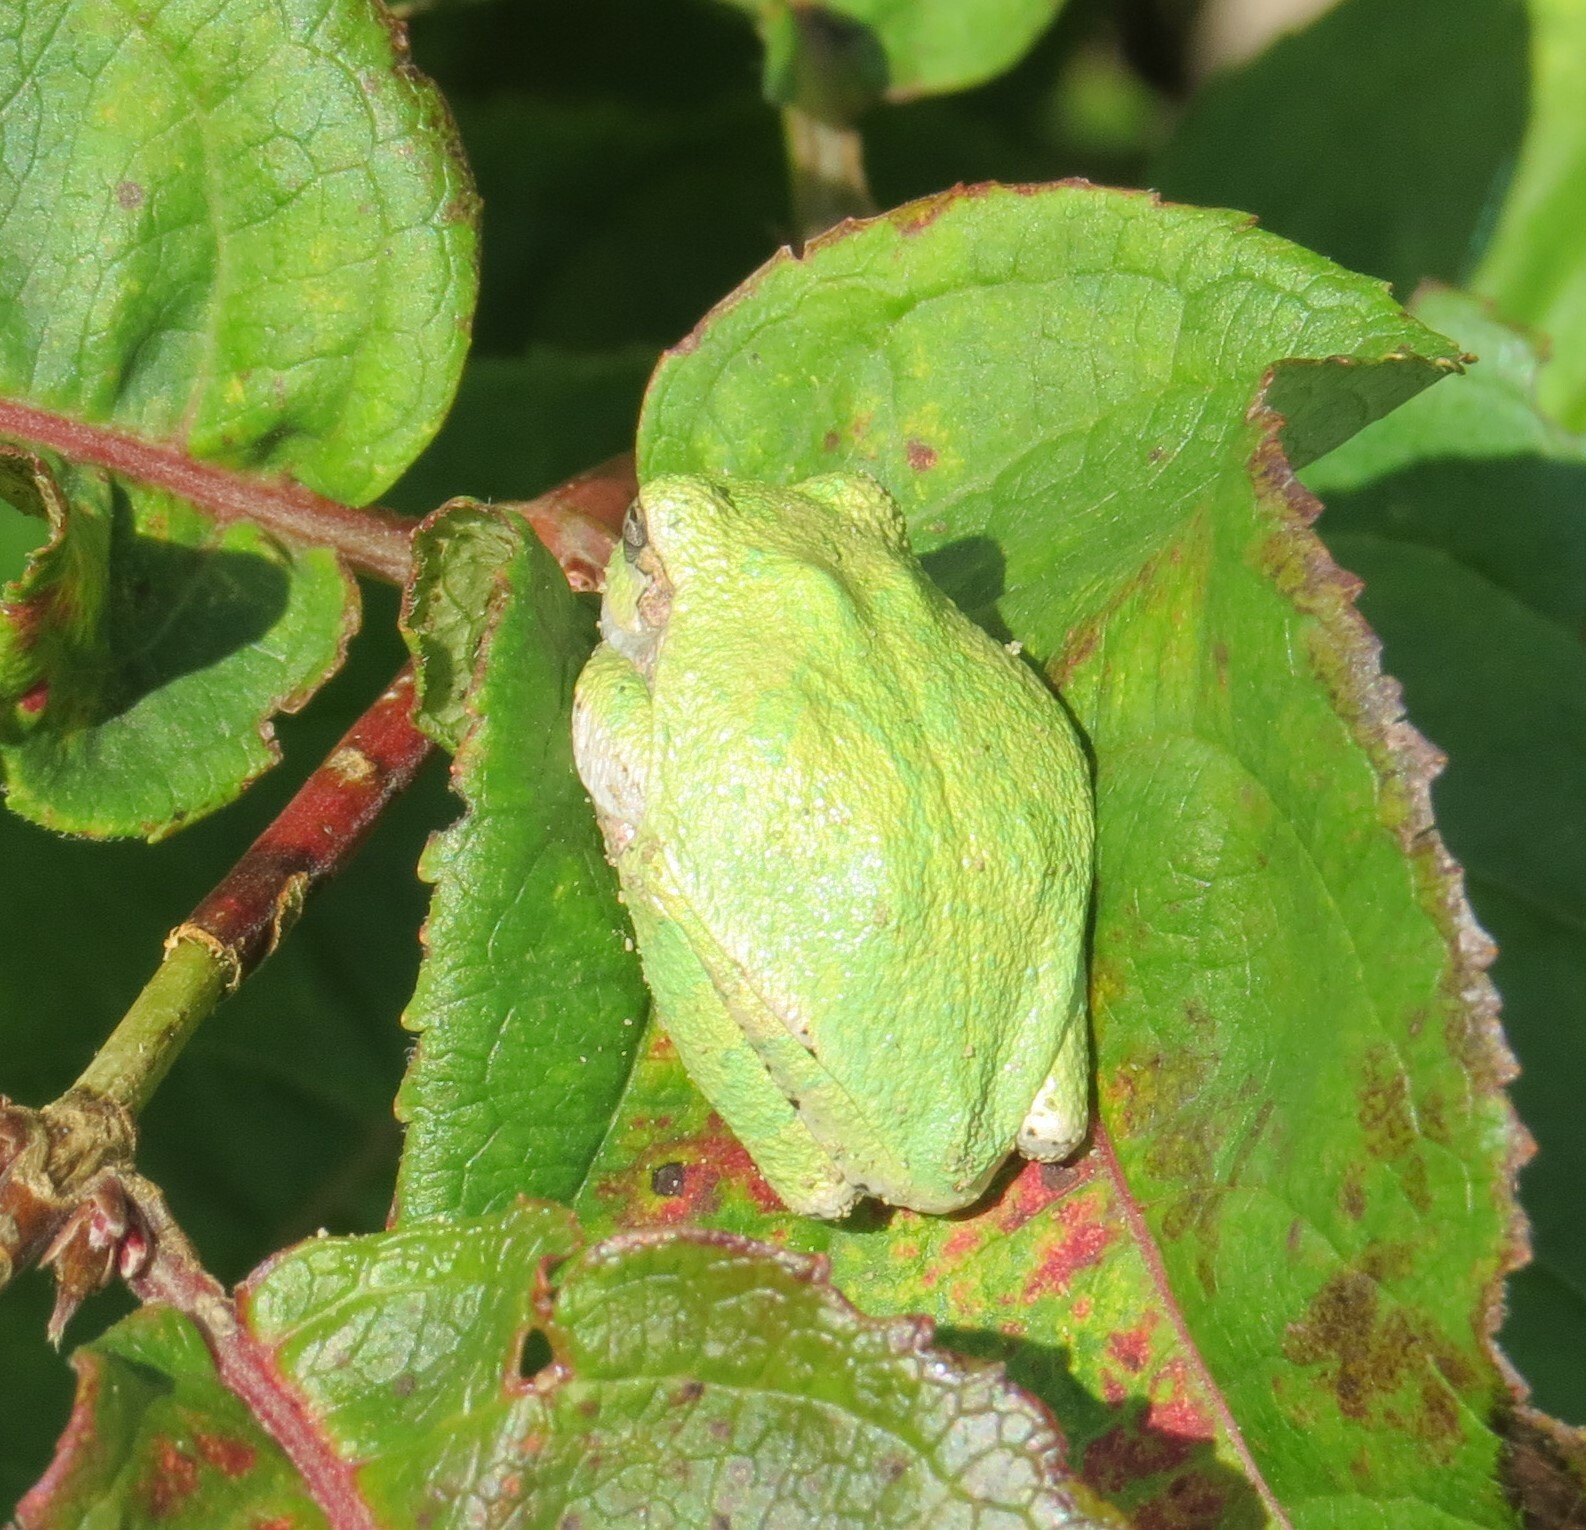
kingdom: Animalia
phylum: Chordata
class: Amphibia
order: Anura
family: Hylidae
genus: Hyla
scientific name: Hyla
